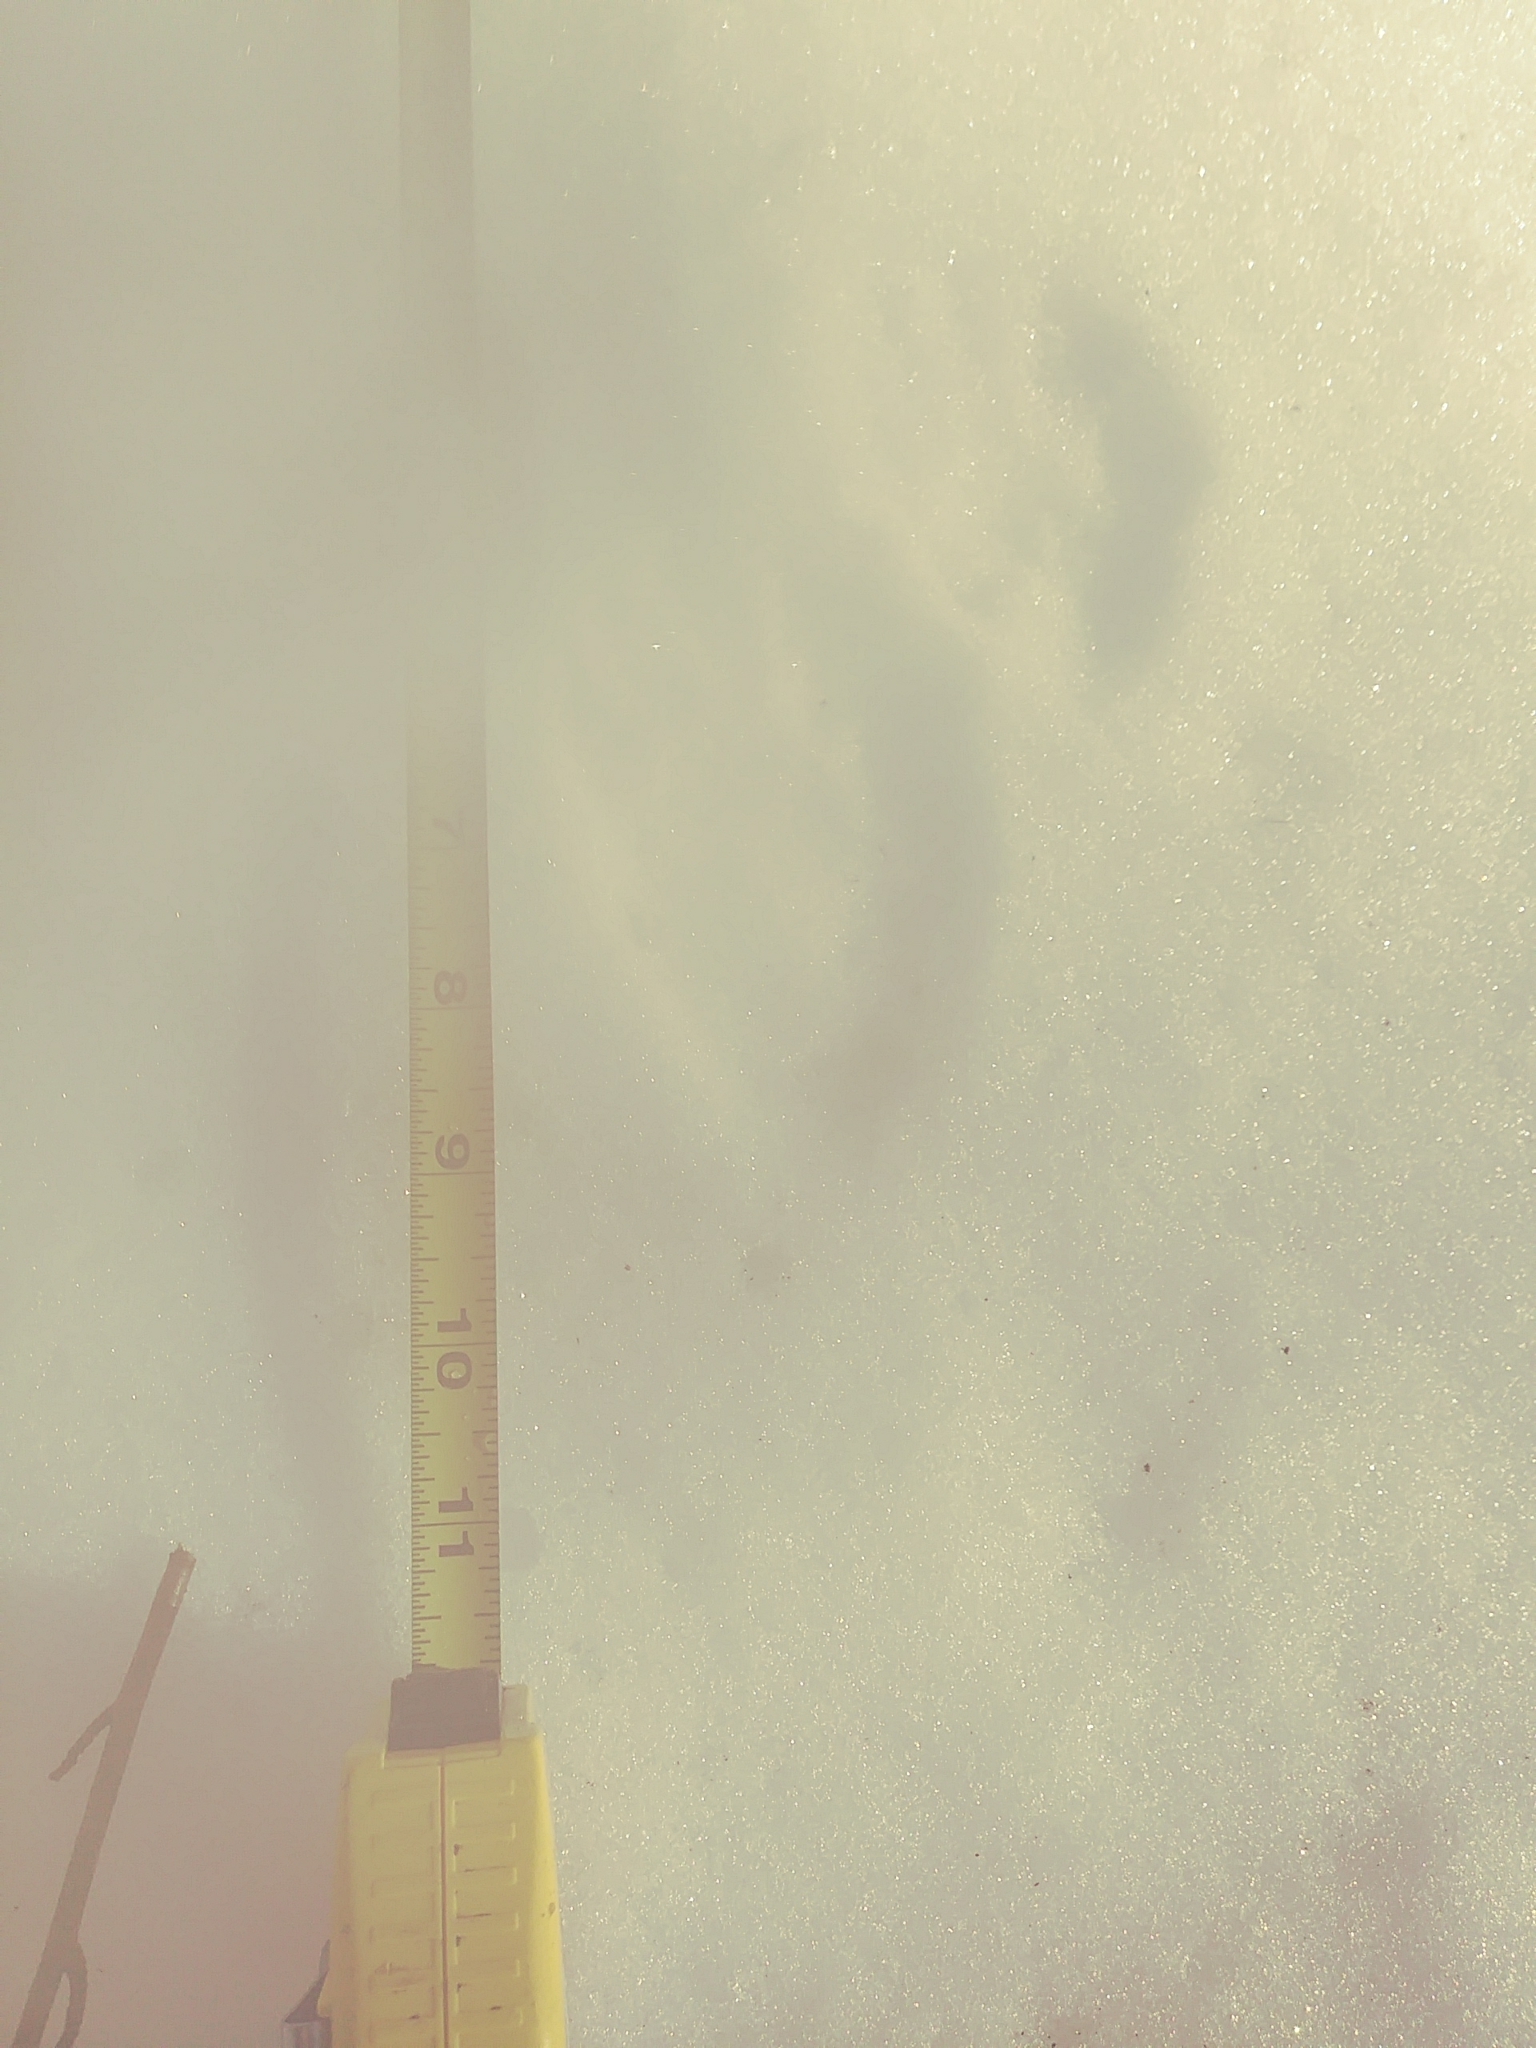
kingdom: Animalia
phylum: Chordata
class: Mammalia
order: Carnivora
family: Procyonidae
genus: Procyon
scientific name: Procyon lotor
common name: Raccoon
